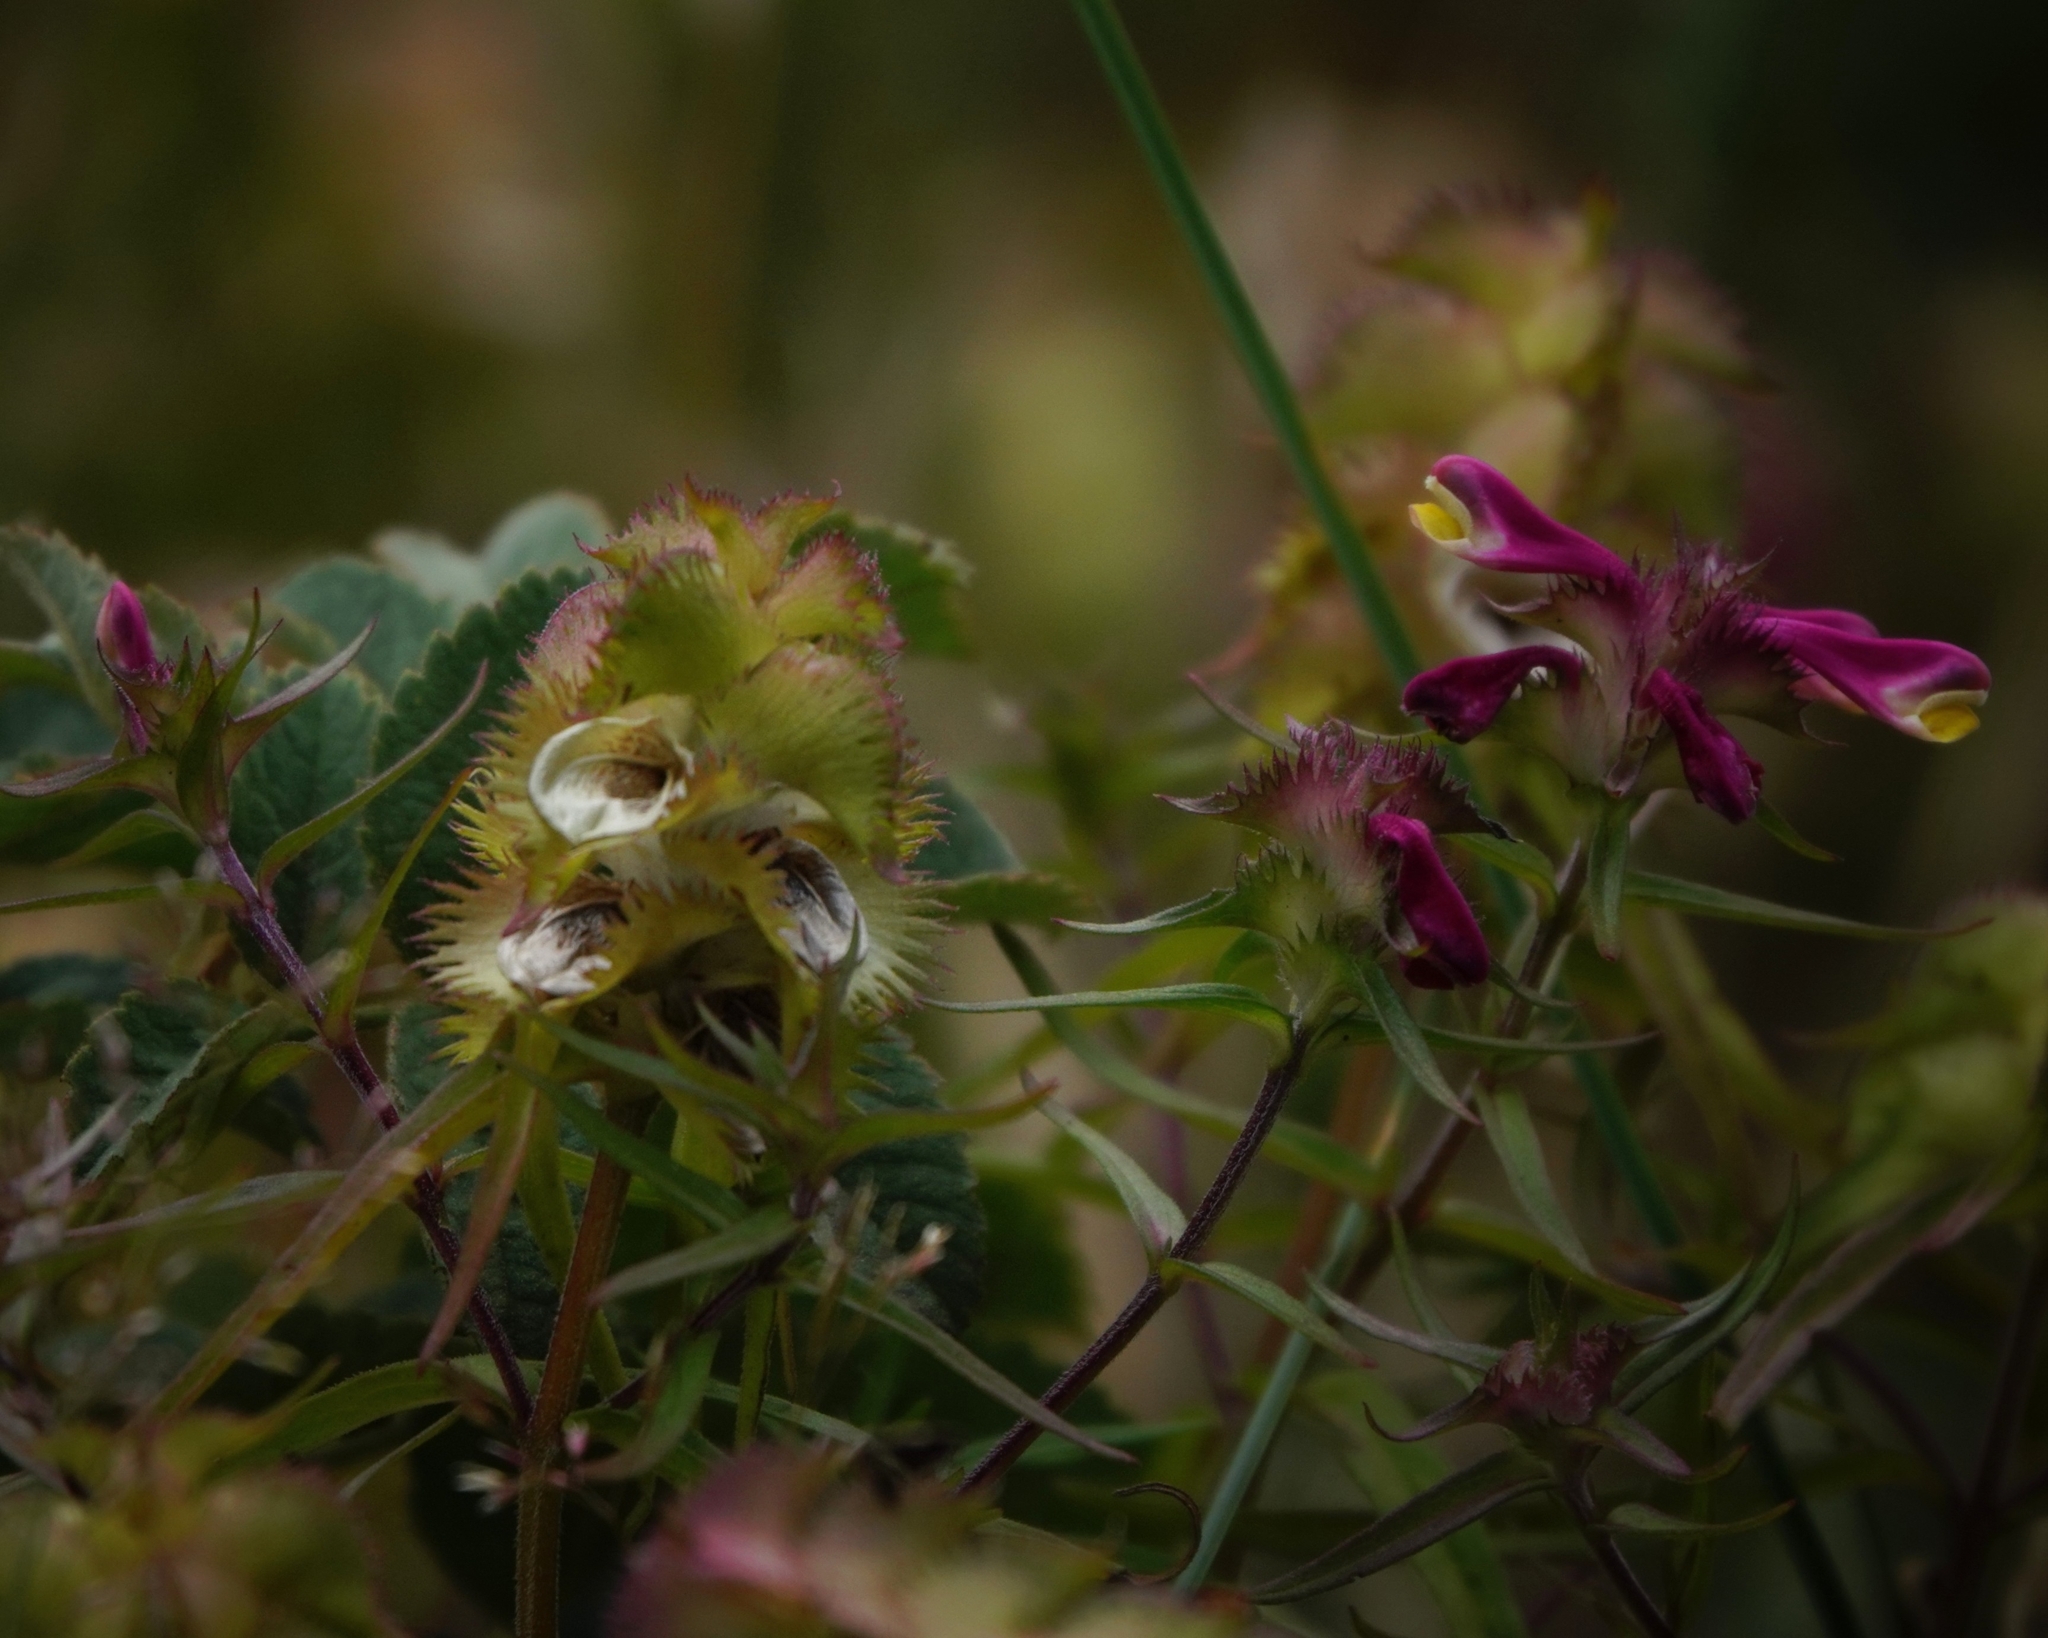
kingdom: Plantae
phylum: Tracheophyta
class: Magnoliopsida
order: Lamiales
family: Orobanchaceae
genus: Melampyrum
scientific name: Melampyrum cristatum
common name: Crested cow-wheat
